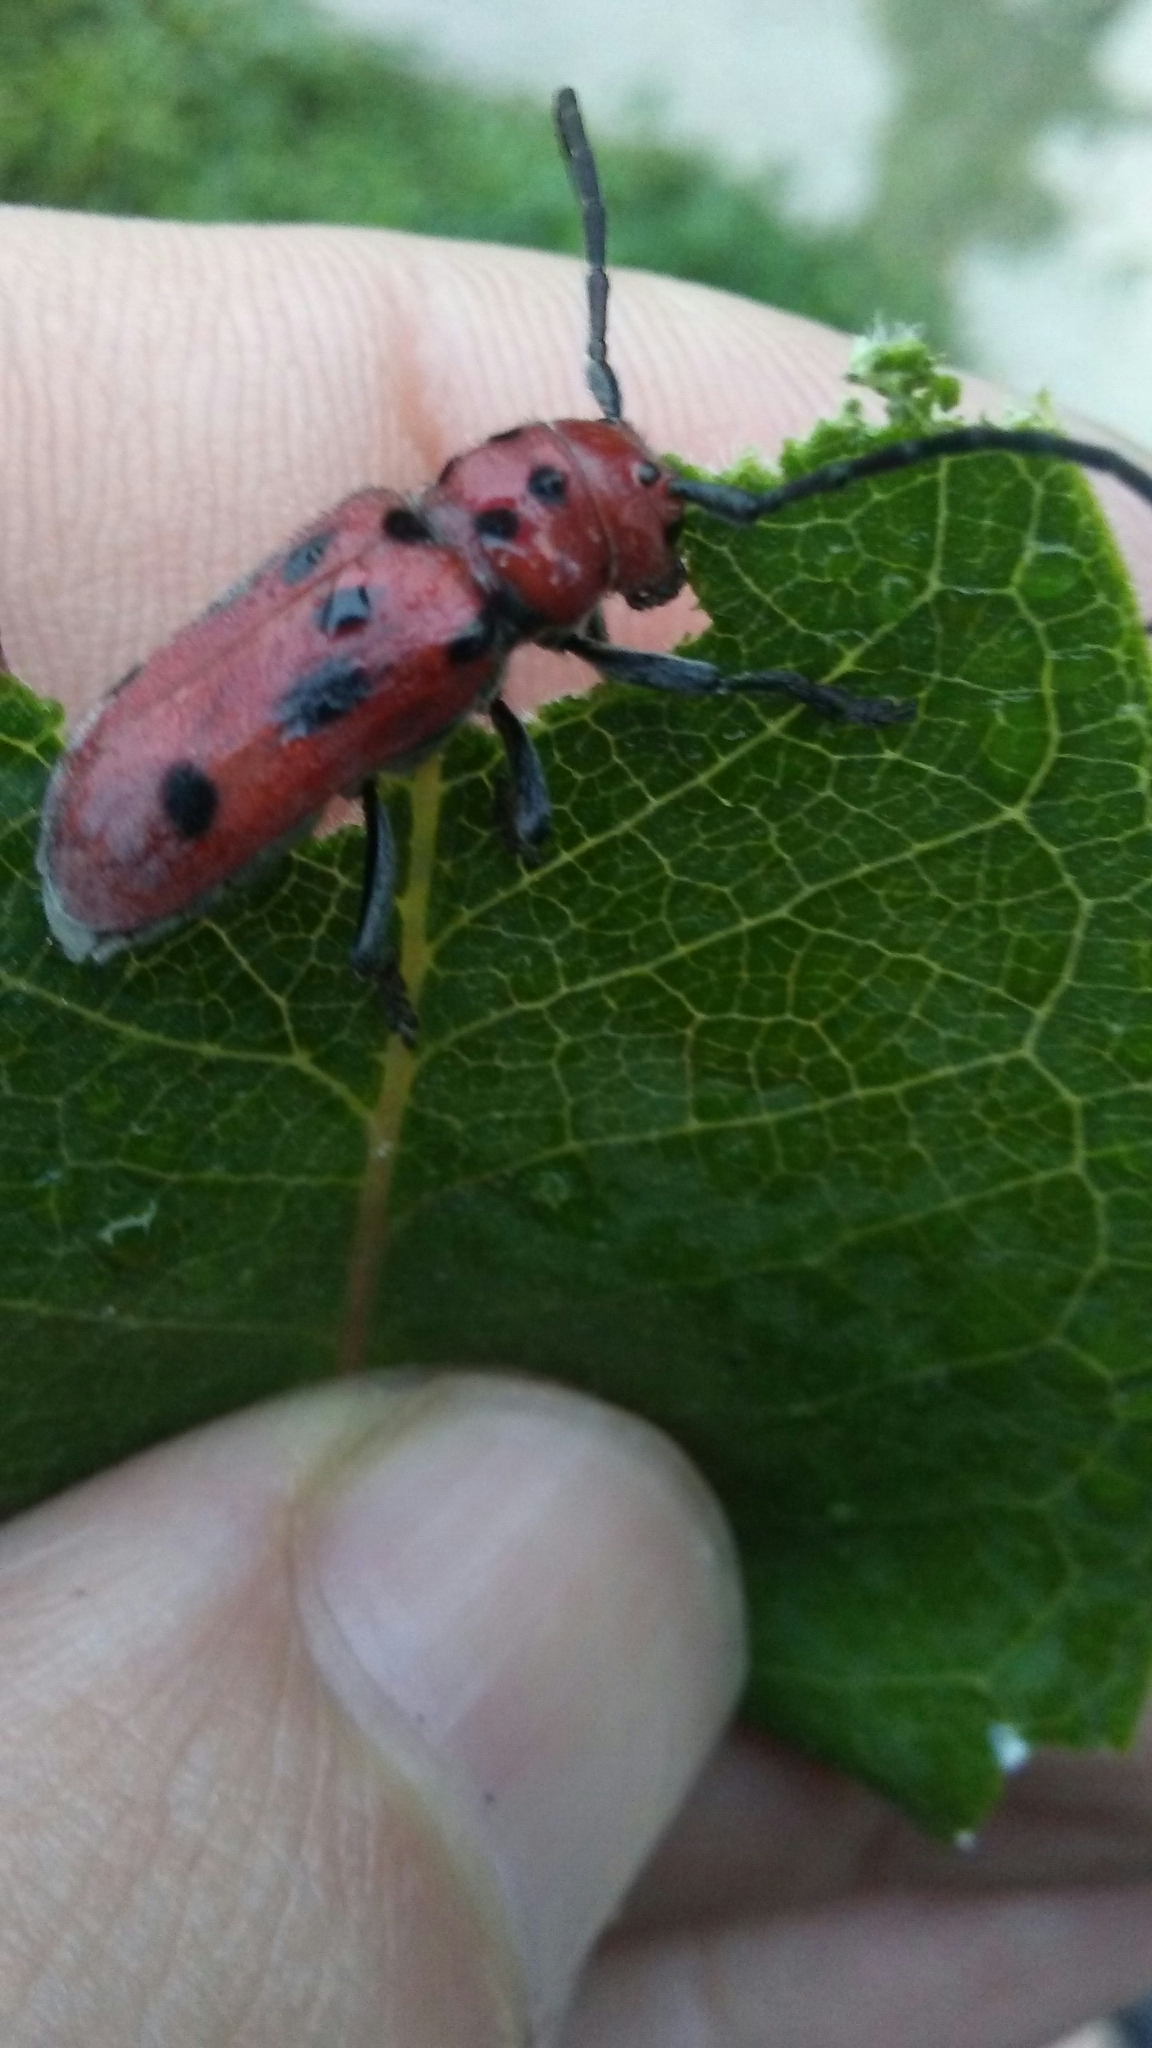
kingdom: Animalia
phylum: Arthropoda
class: Insecta
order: Coleoptera
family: Cerambycidae
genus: Tetraopes
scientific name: Tetraopes tetrophthalmus
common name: Red milkweed beetle
